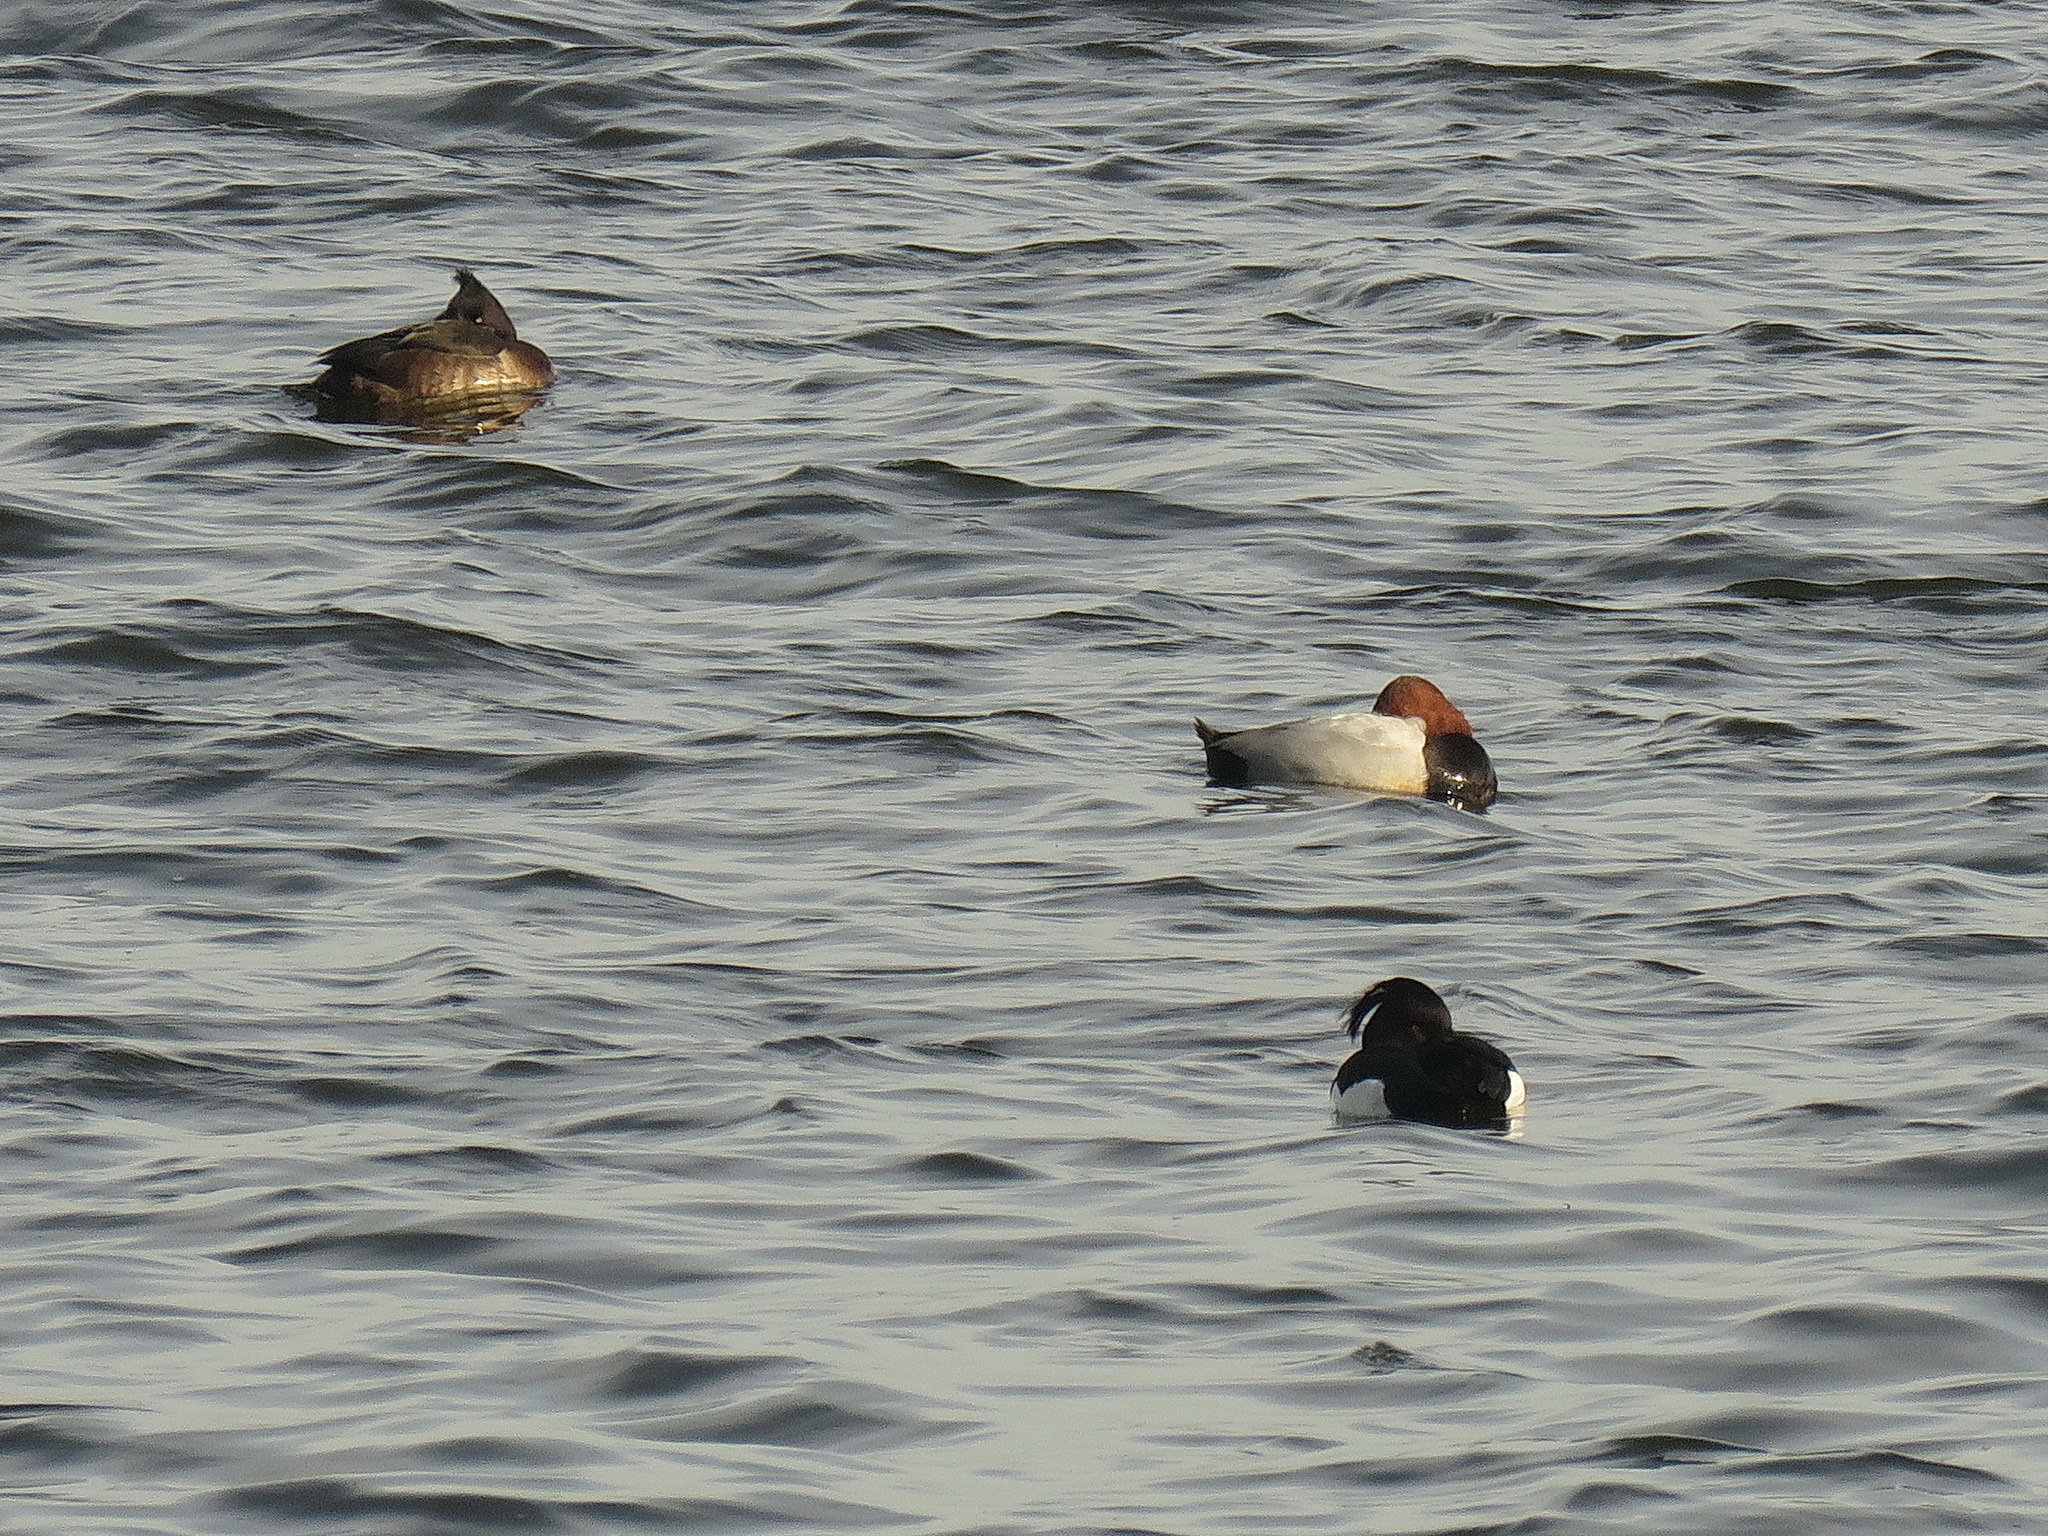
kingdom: Animalia
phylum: Chordata
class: Aves
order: Anseriformes
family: Anatidae
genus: Aythya
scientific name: Aythya fuligula
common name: Tufted duck
